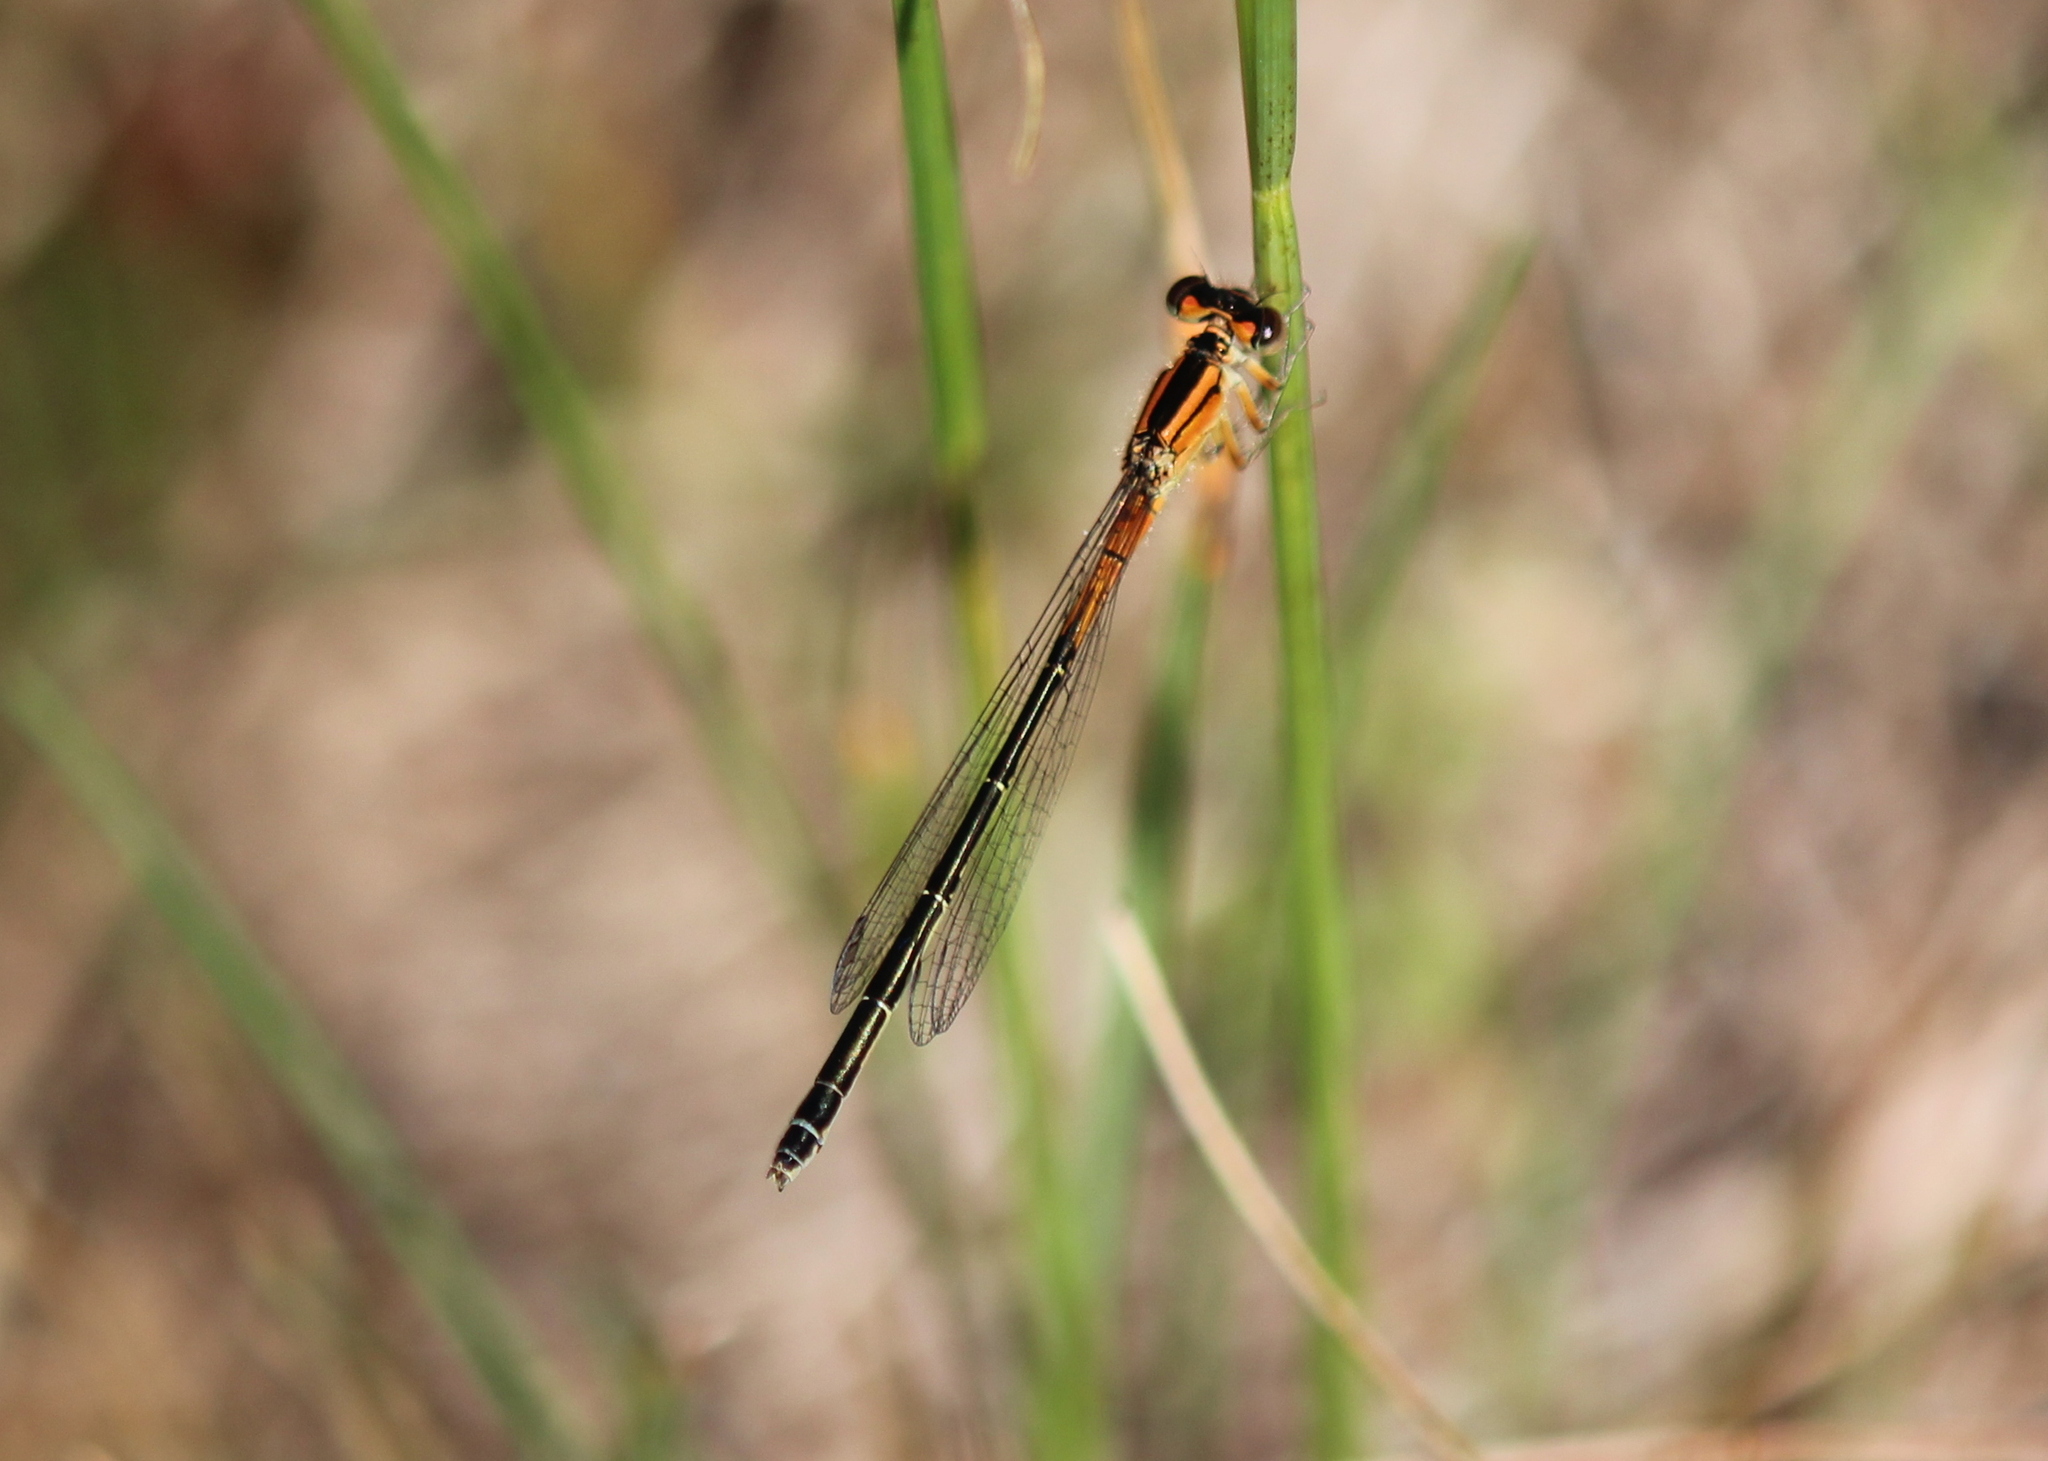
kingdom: Animalia
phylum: Arthropoda
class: Insecta
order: Odonata
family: Coenagrionidae
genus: Ischnura
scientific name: Ischnura verticalis
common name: Eastern forktail
